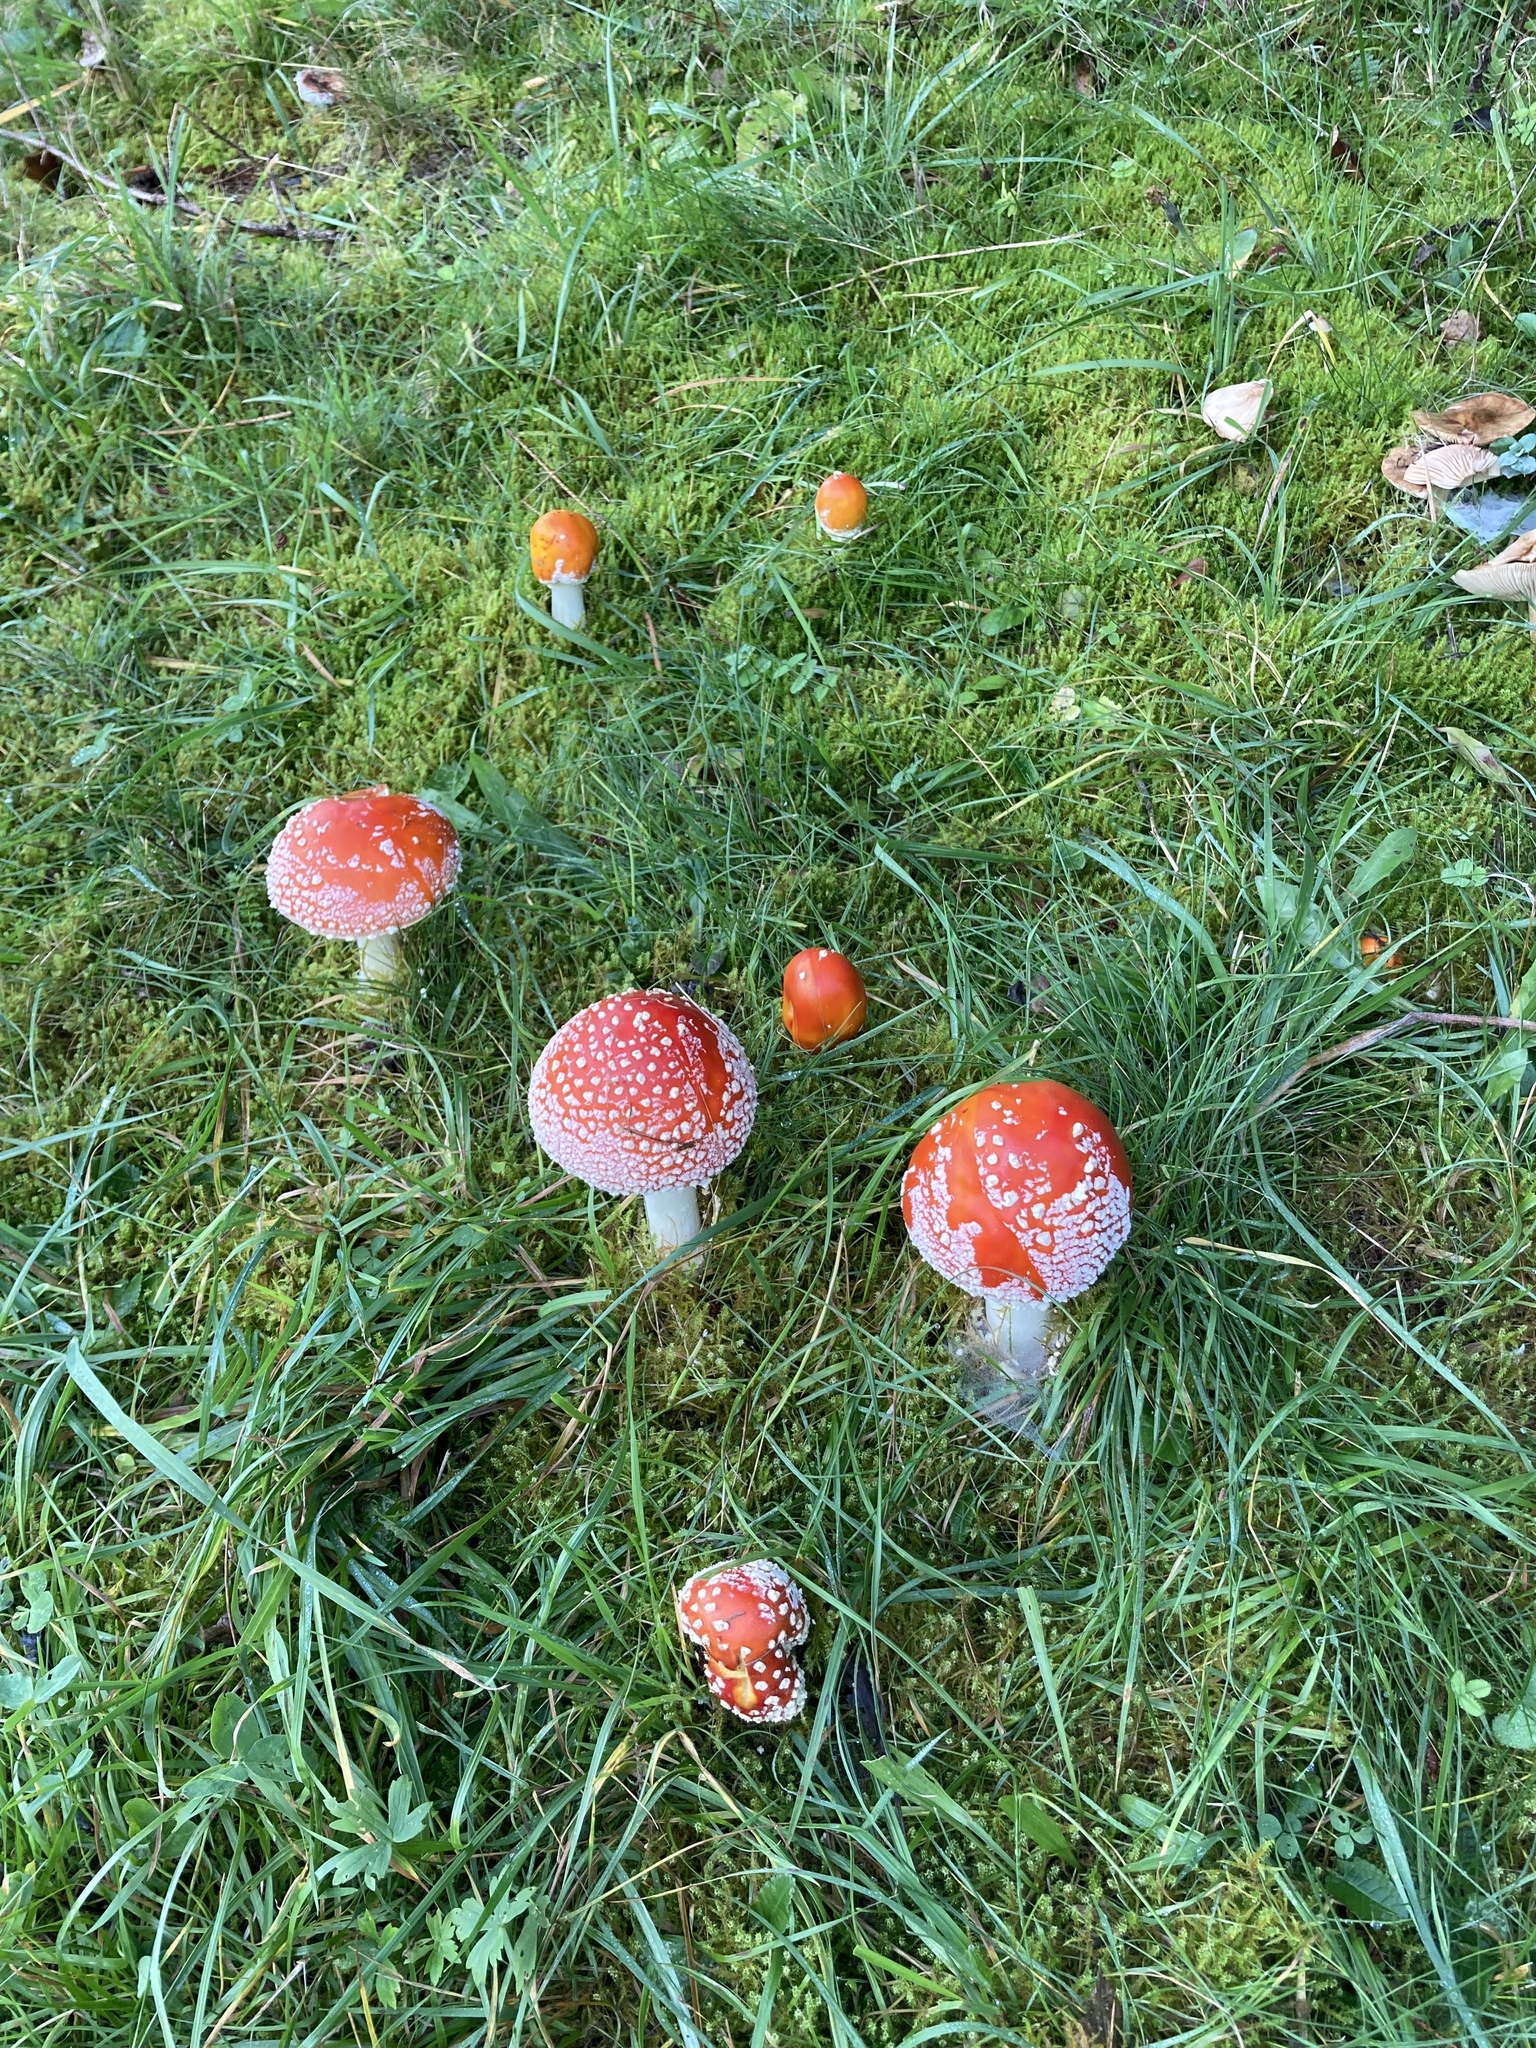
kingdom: Fungi
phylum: Basidiomycota
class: Agaricomycetes
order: Agaricales
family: Amanitaceae
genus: Amanita
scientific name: Amanita muscaria
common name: Fly agaric
